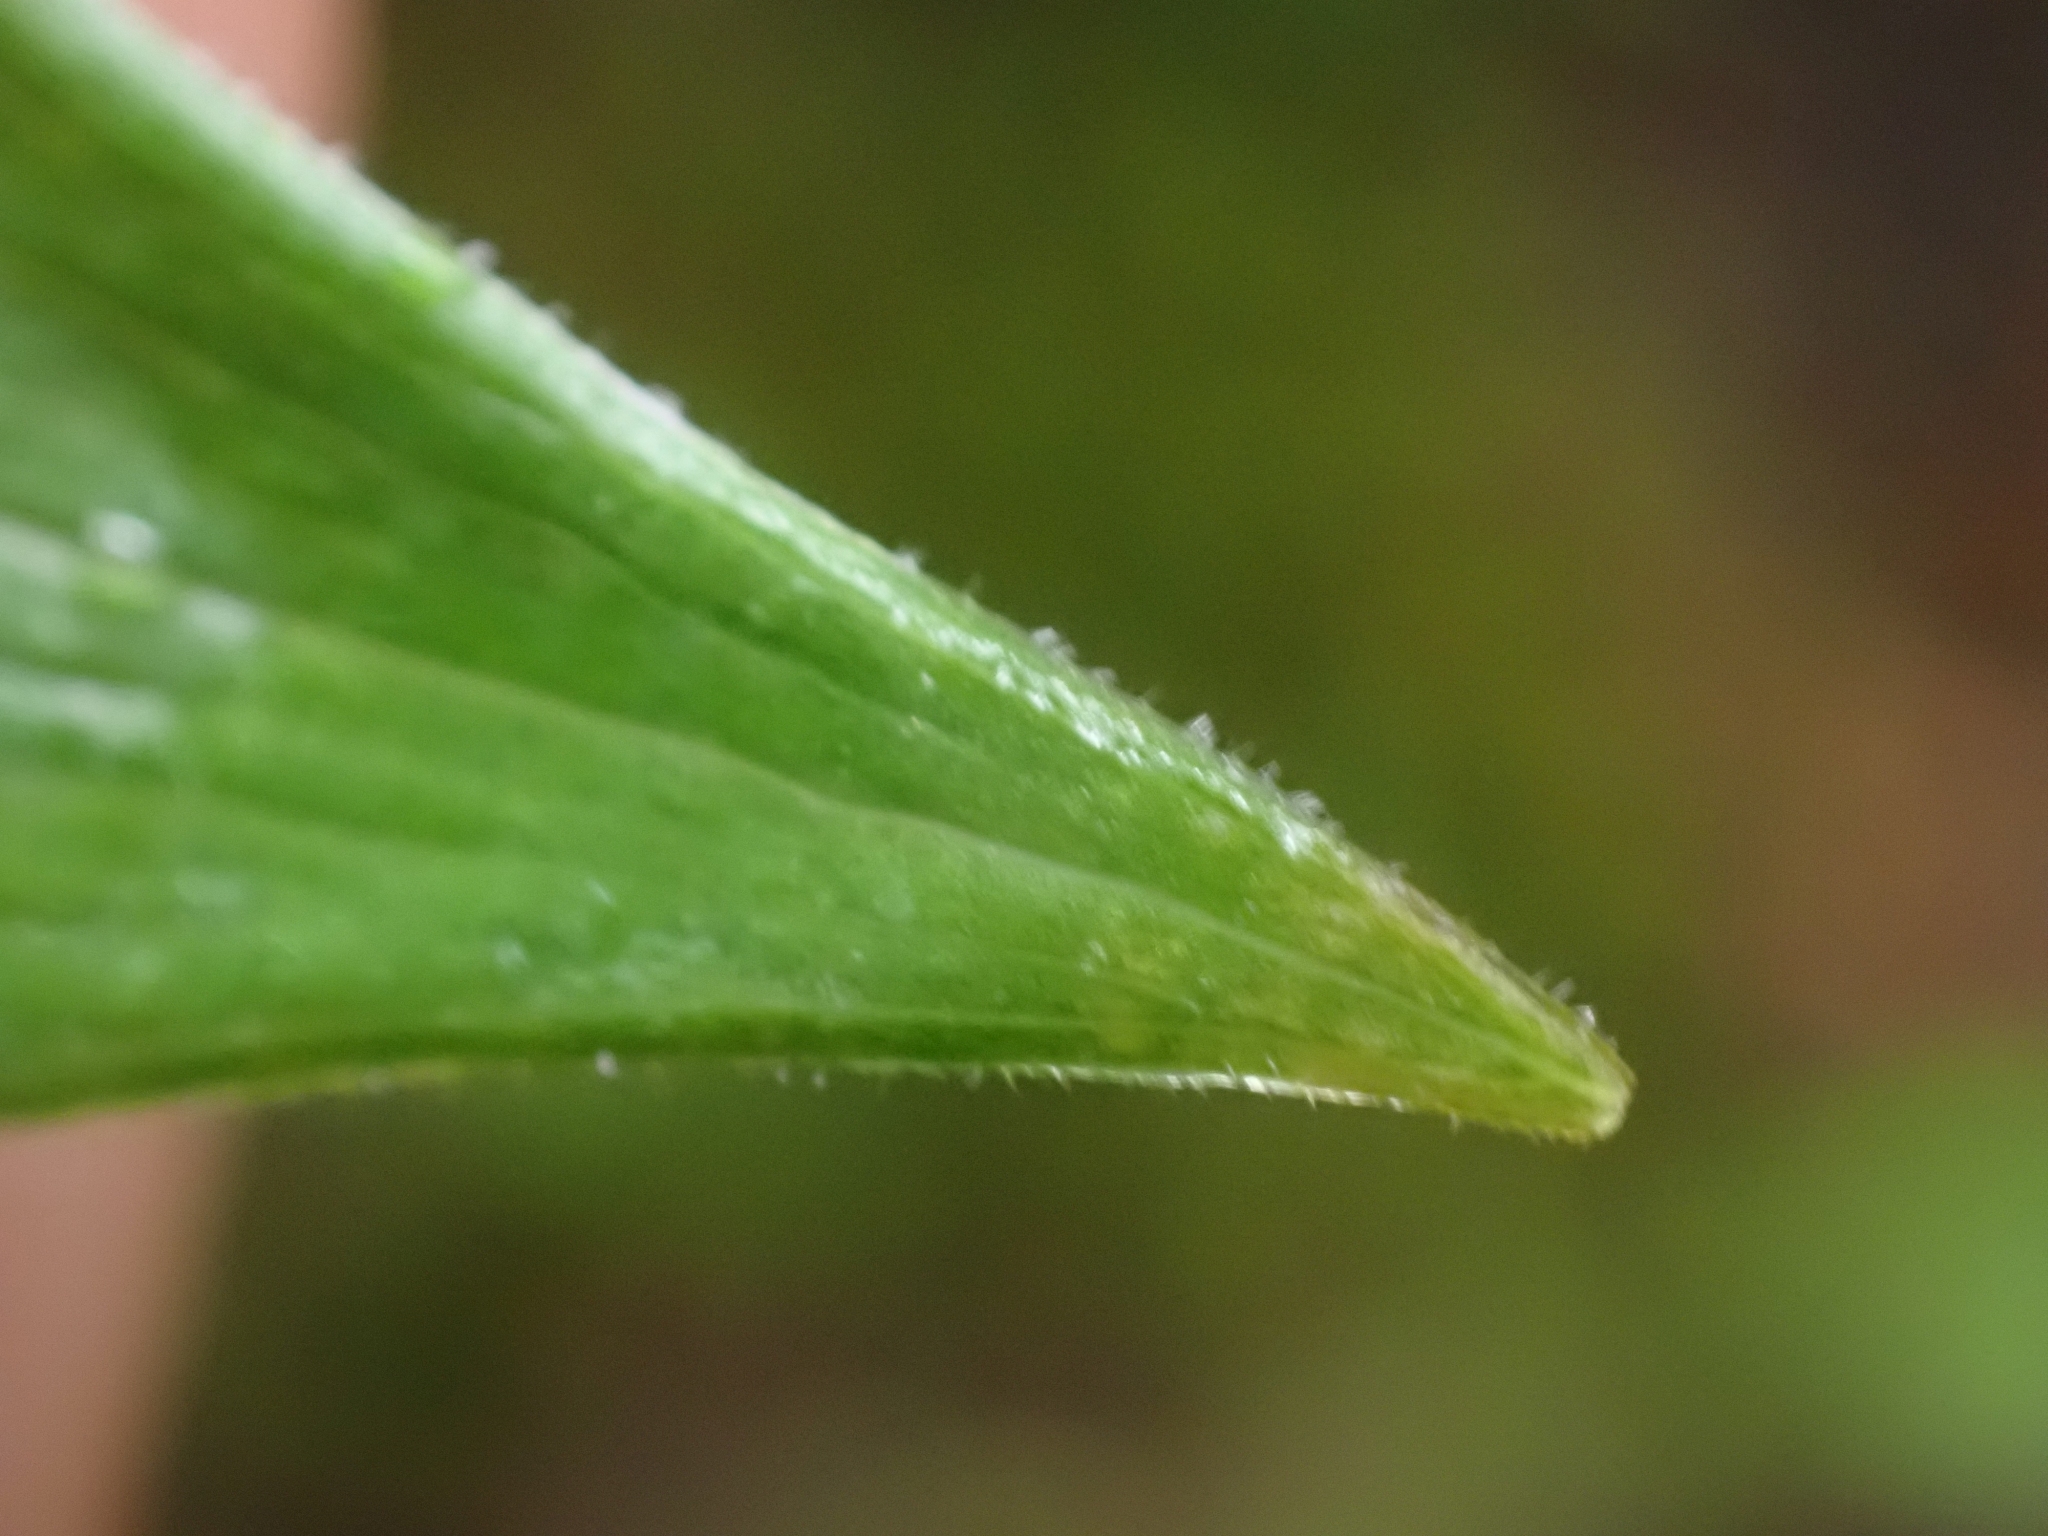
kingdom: Plantae
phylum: Tracheophyta
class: Liliopsida
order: Asparagales
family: Asparagaceae
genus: Maianthemum
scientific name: Maianthemum racemosum
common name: False spikenard
